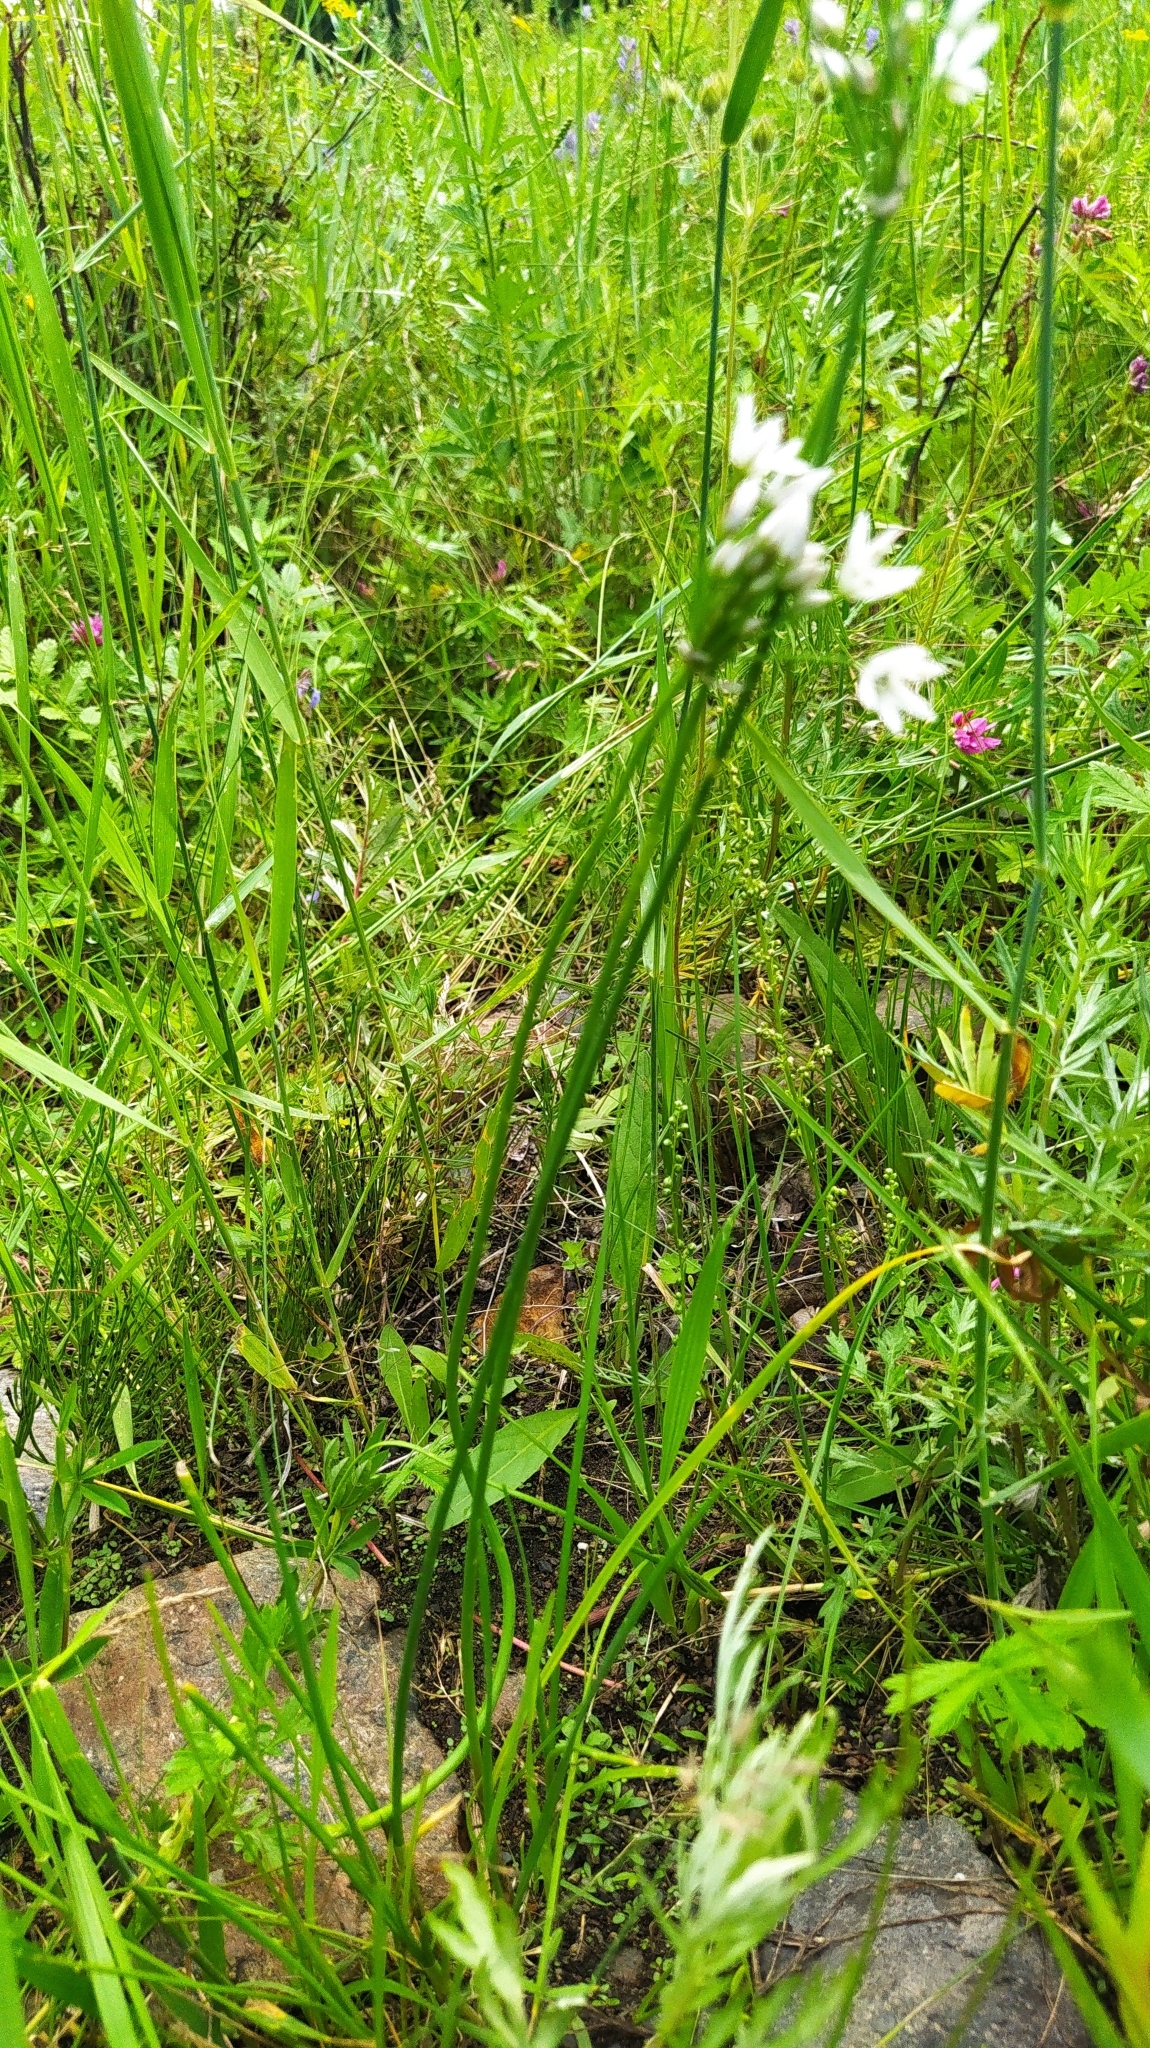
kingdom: Plantae
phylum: Tracheophyta
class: Liliopsida
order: Asparagales
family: Amaryllidaceae
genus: Allium
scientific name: Allium ramosum
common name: Fragrant garlic
